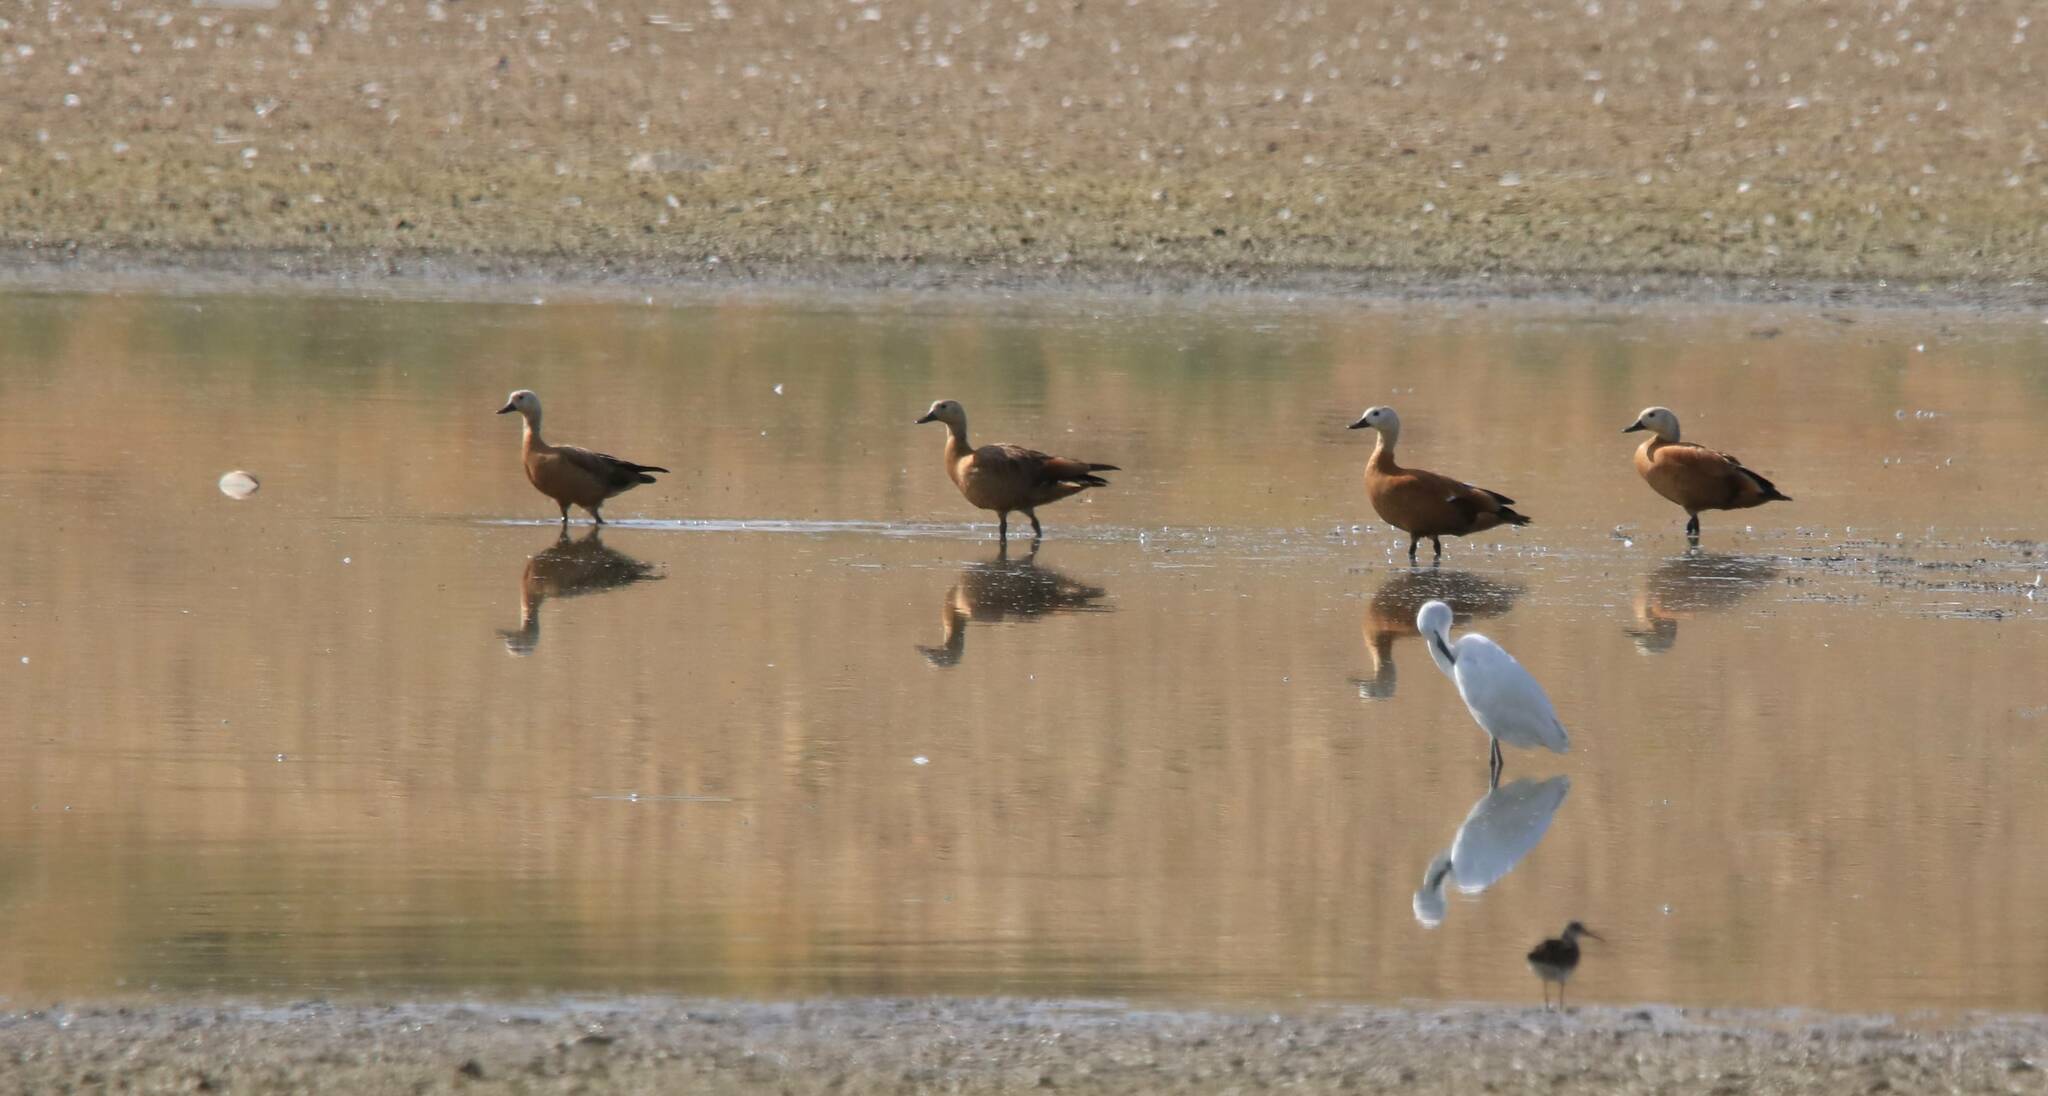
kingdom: Animalia
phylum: Chordata
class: Aves
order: Anseriformes
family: Anatidae
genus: Tadorna
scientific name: Tadorna ferruginea
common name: Ruddy shelduck
